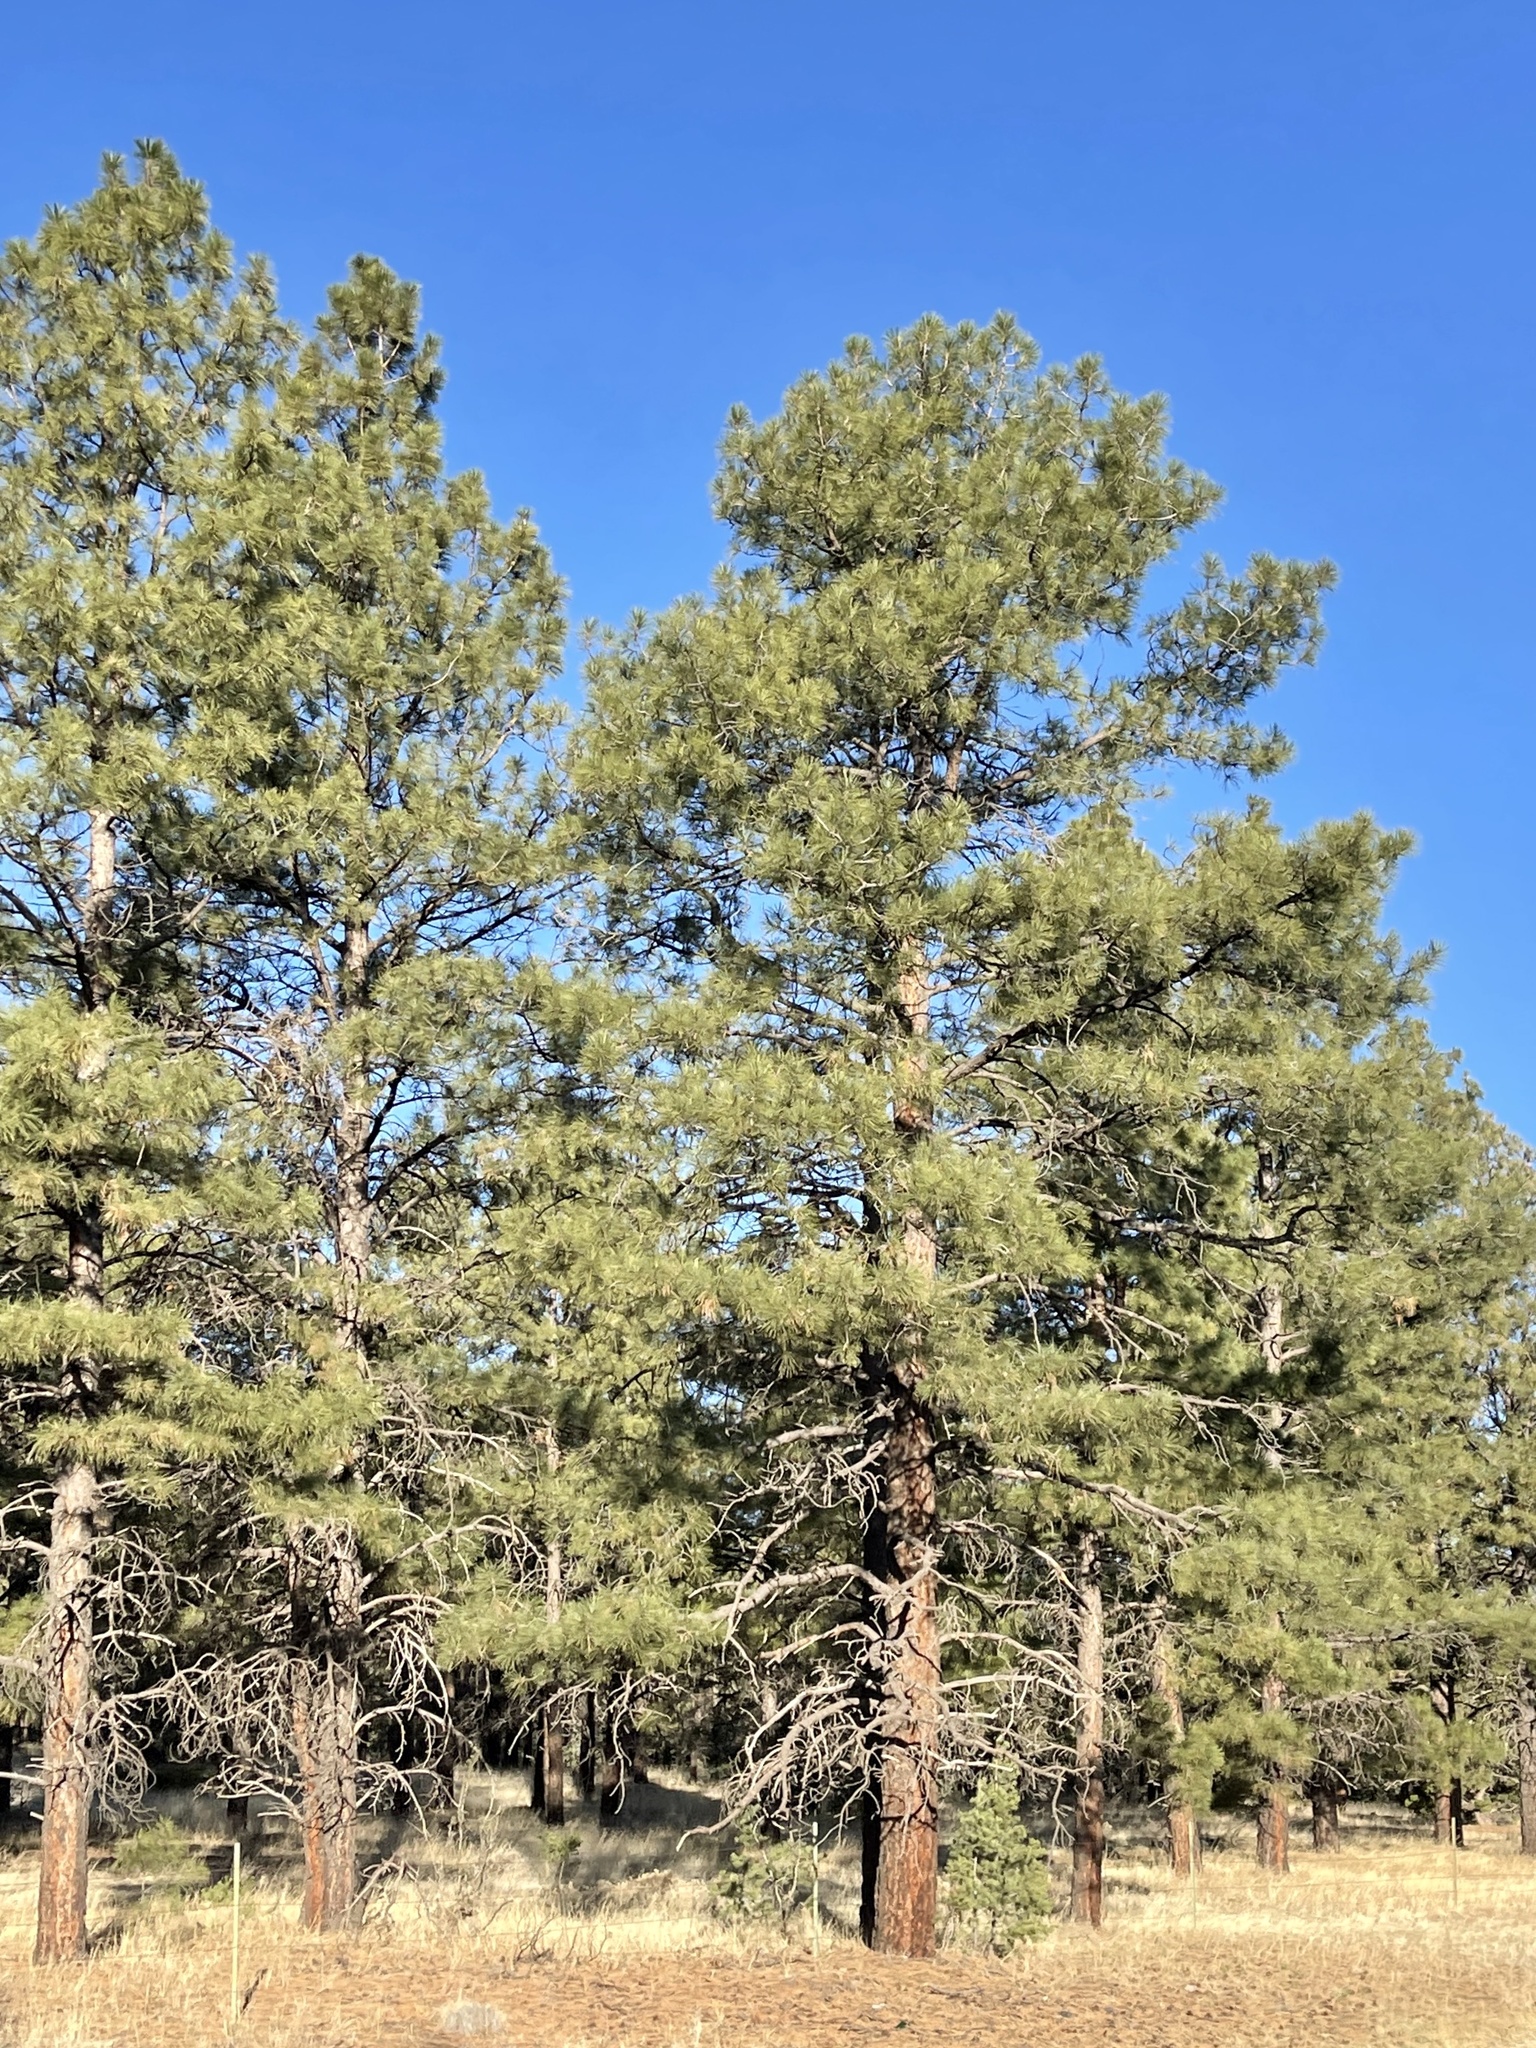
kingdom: Plantae
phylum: Tracheophyta
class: Pinopsida
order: Pinales
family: Pinaceae
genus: Pinus
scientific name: Pinus ponderosa
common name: Western yellow-pine
